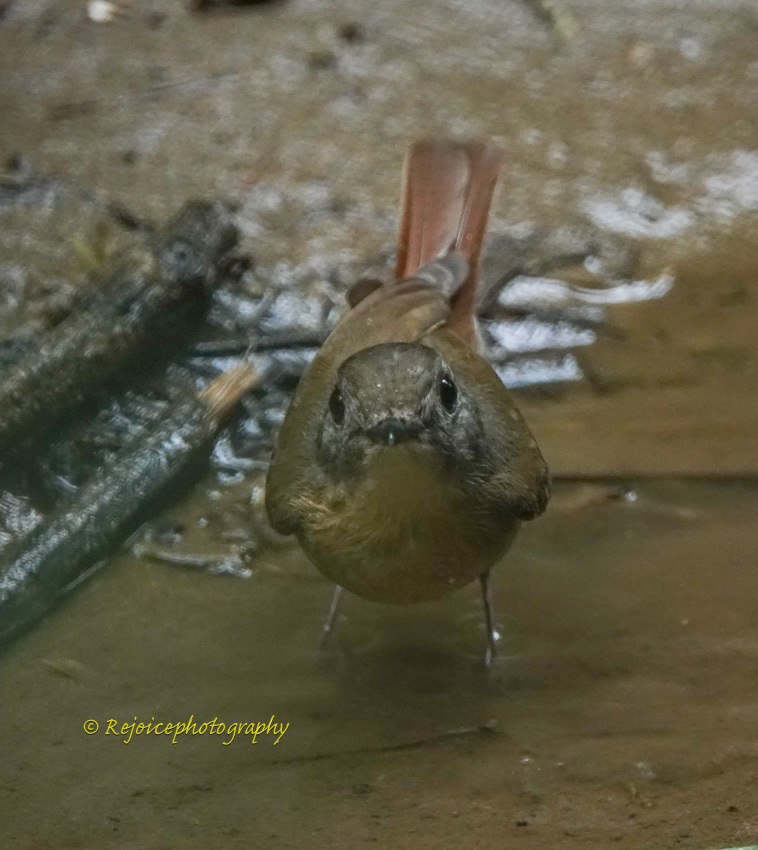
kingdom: Animalia
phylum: Chordata
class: Aves
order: Passeriformes
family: Muscicapidae
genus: Cyornis
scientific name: Cyornis poliogenys
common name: Pale-chinned blue flycatcher
